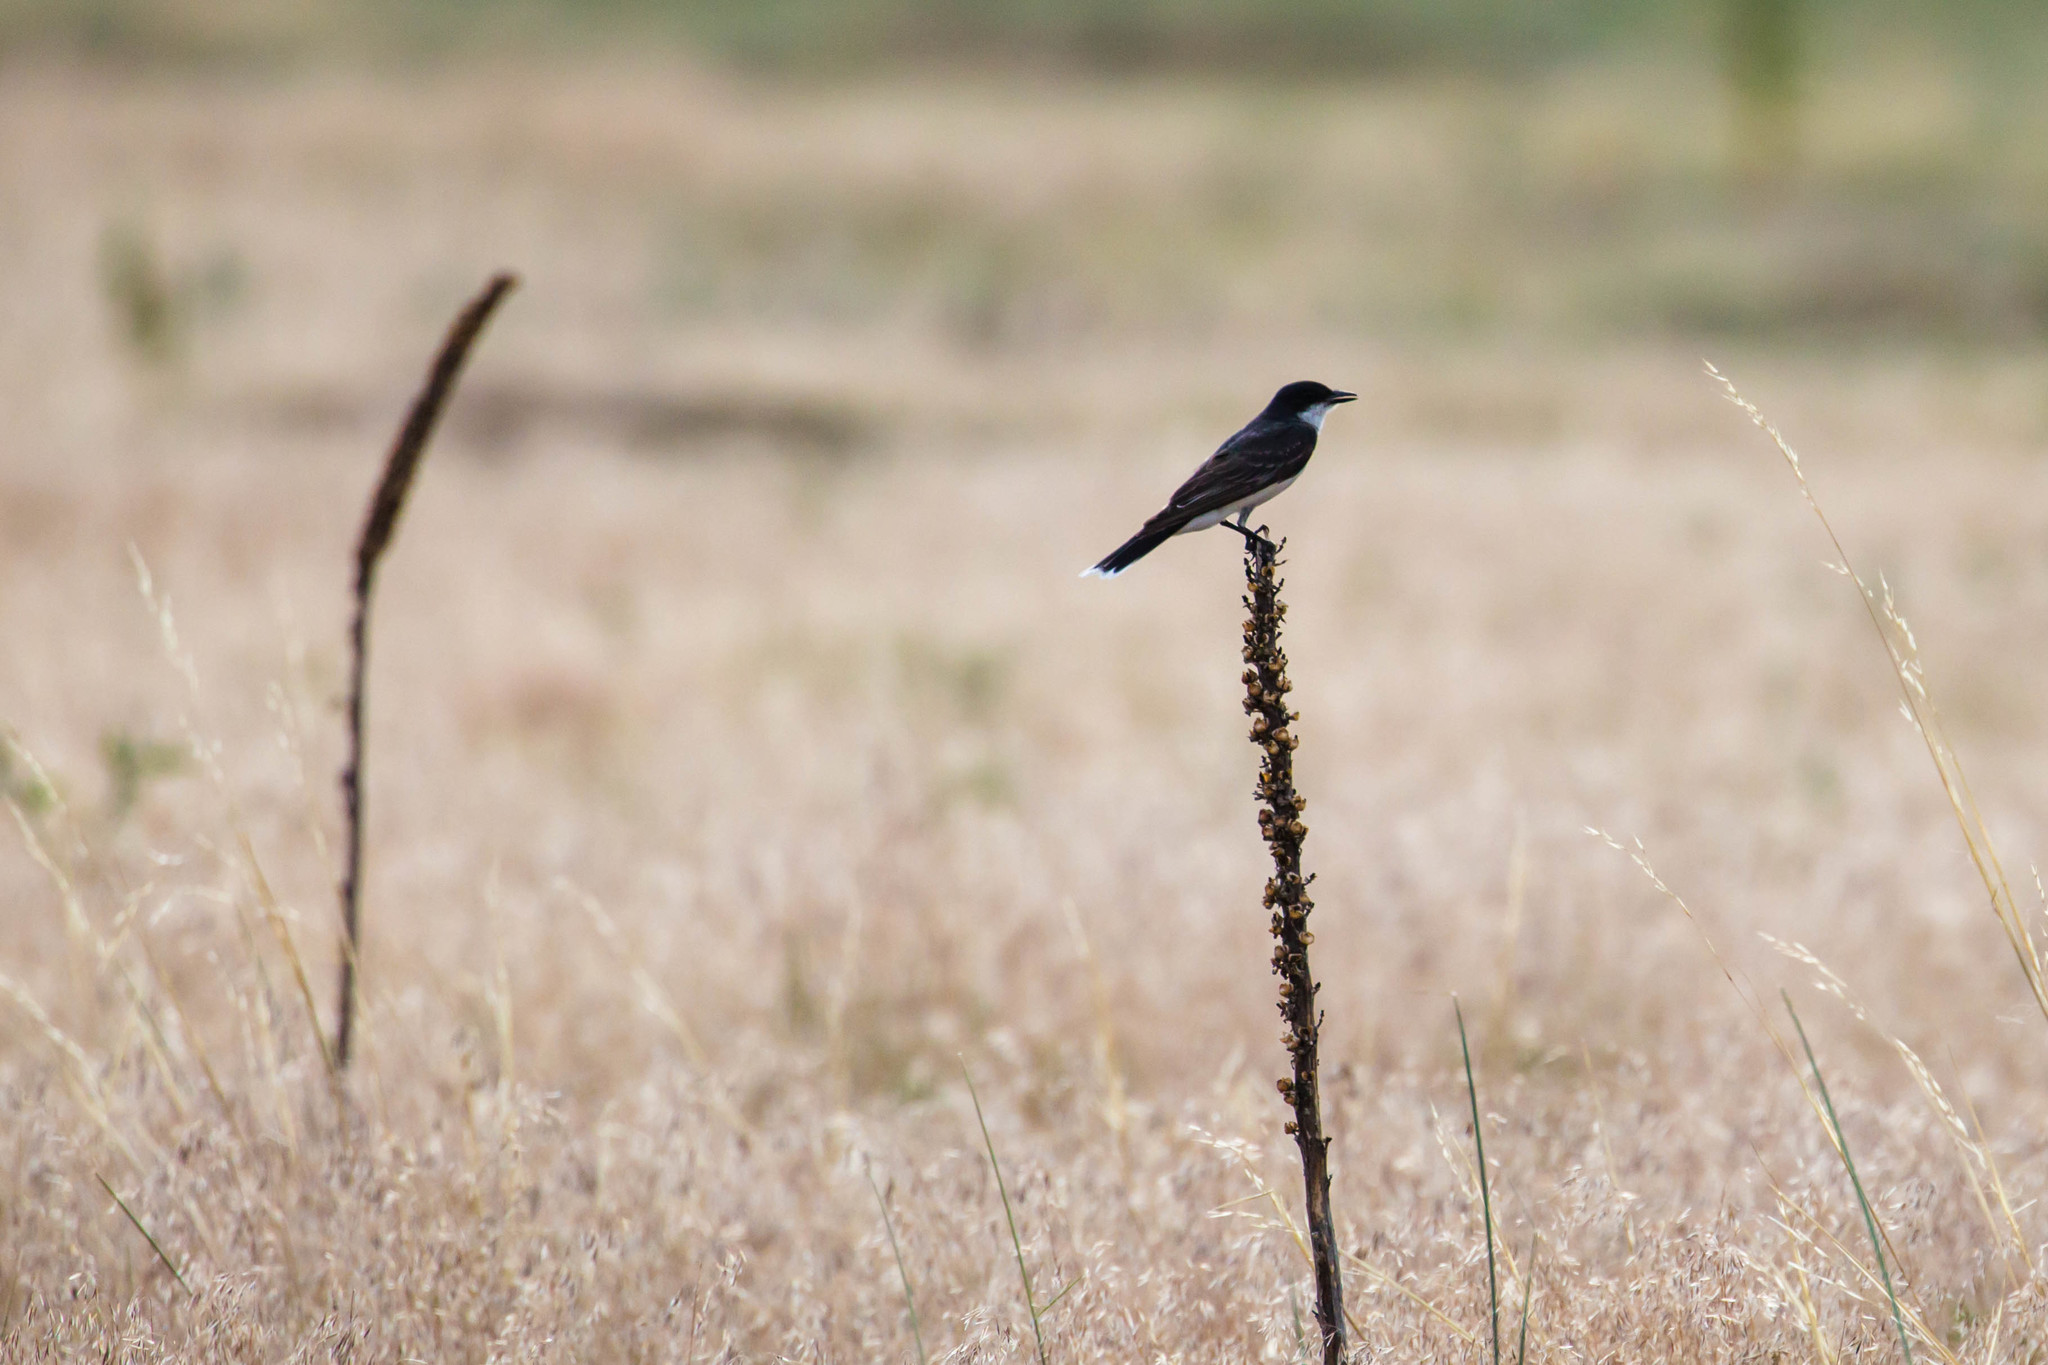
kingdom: Animalia
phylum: Chordata
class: Aves
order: Passeriformes
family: Tyrannidae
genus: Tyrannus
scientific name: Tyrannus tyrannus
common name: Eastern kingbird
